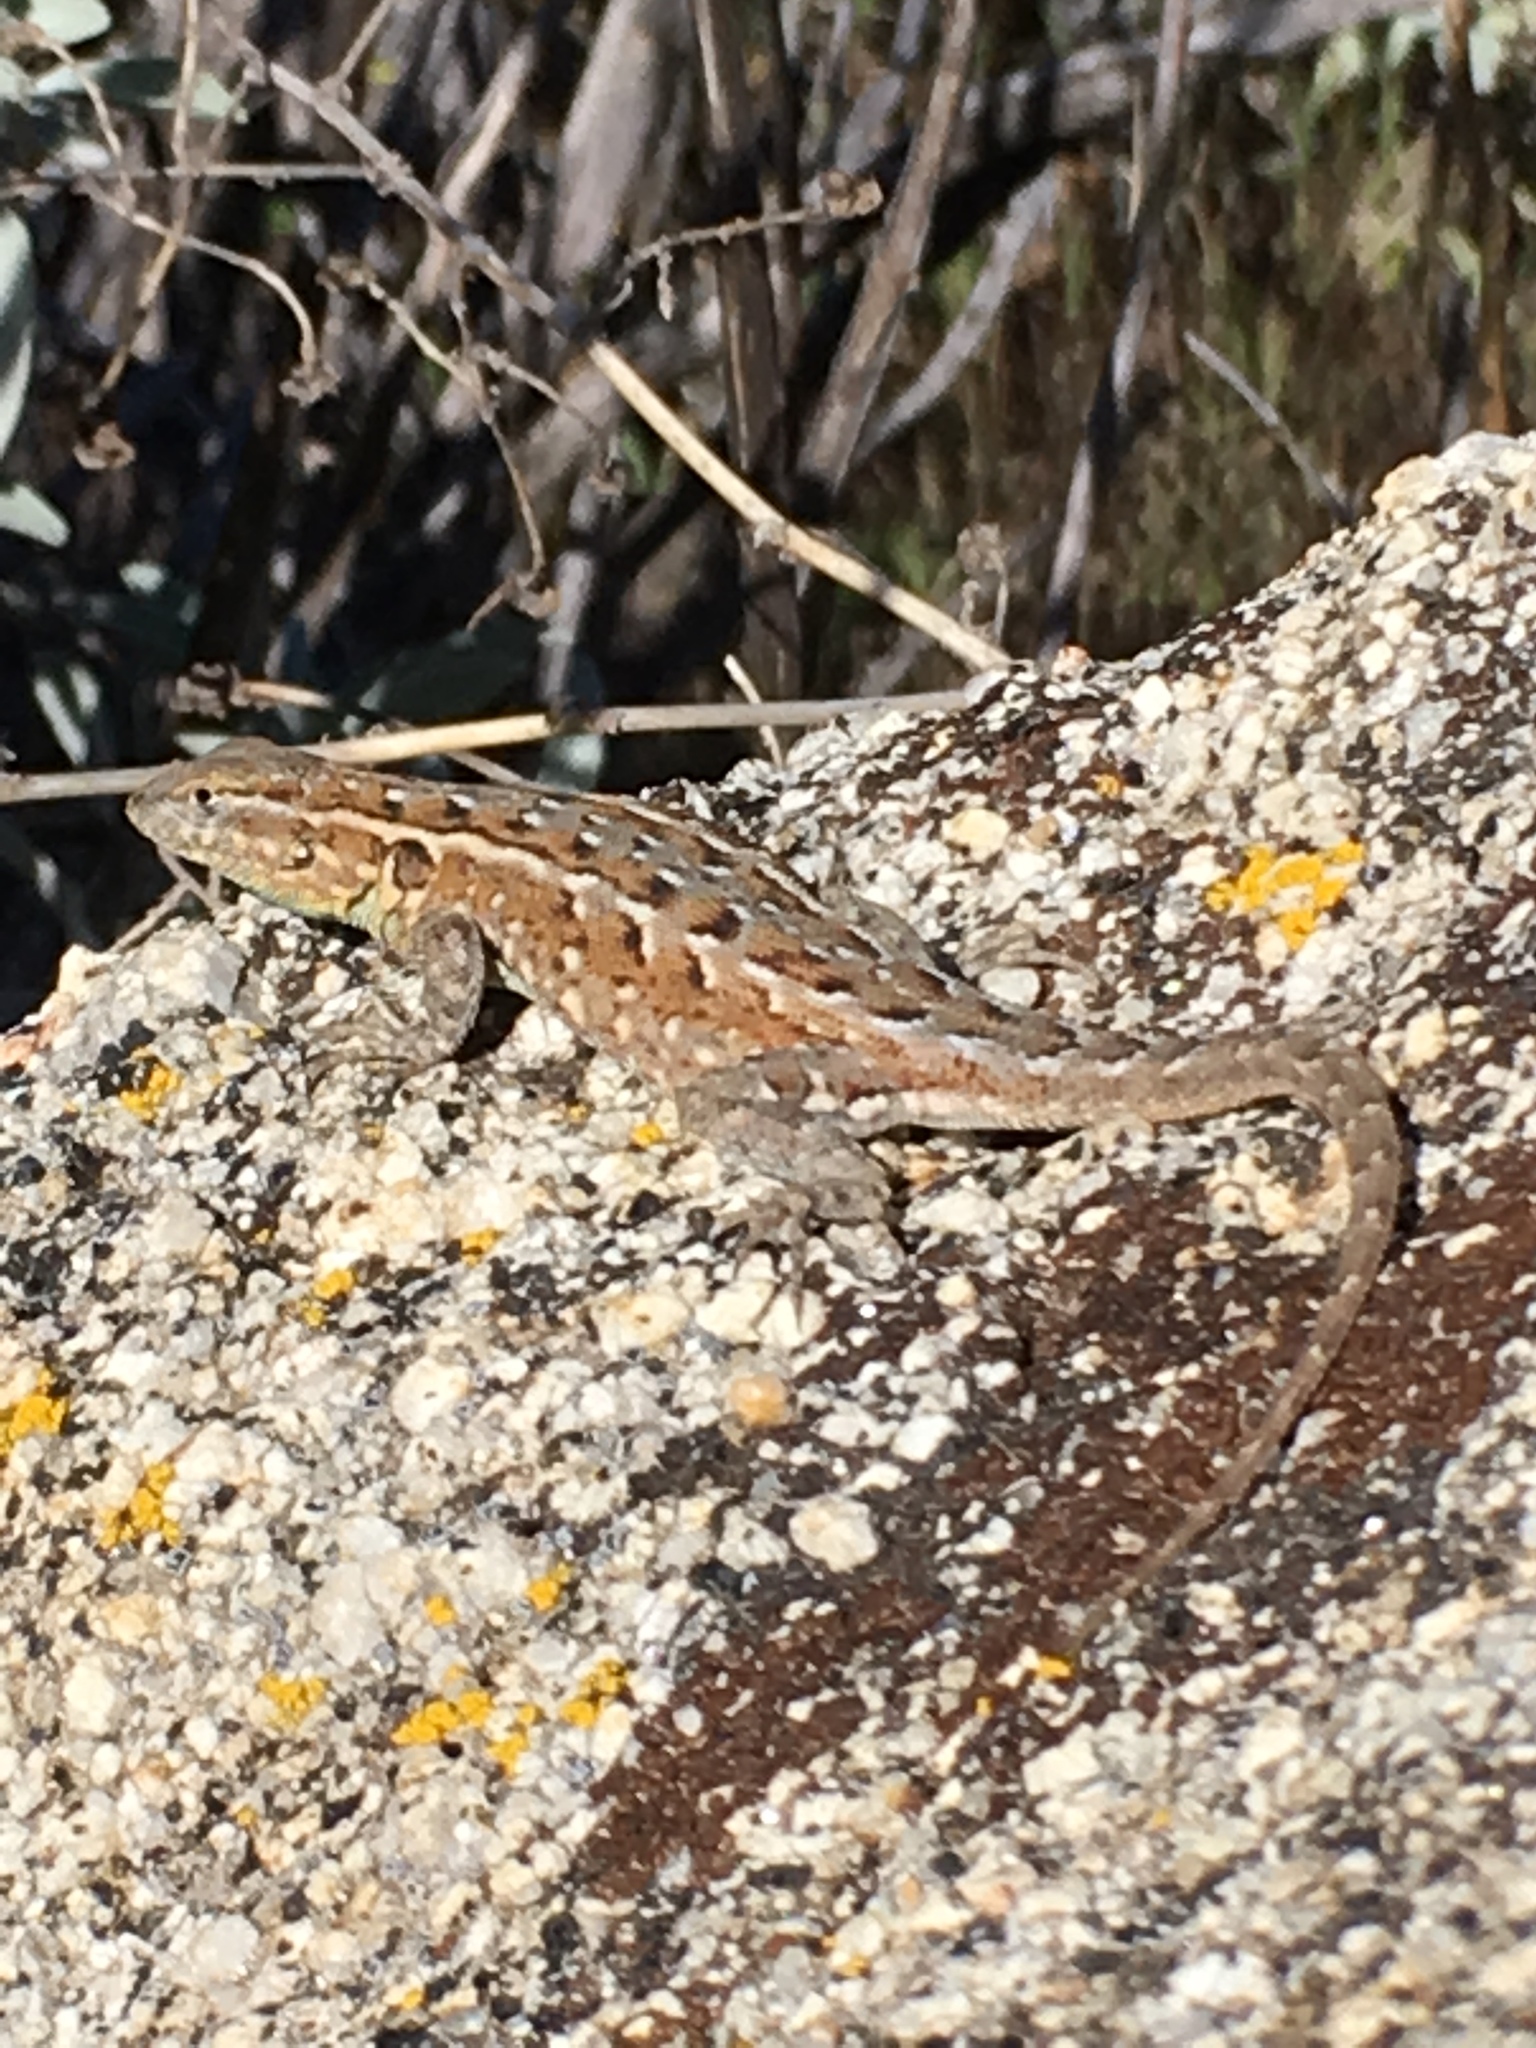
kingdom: Animalia
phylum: Chordata
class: Squamata
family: Phrynosomatidae
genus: Uta
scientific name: Uta stansburiana
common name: Side-blotched lizard
